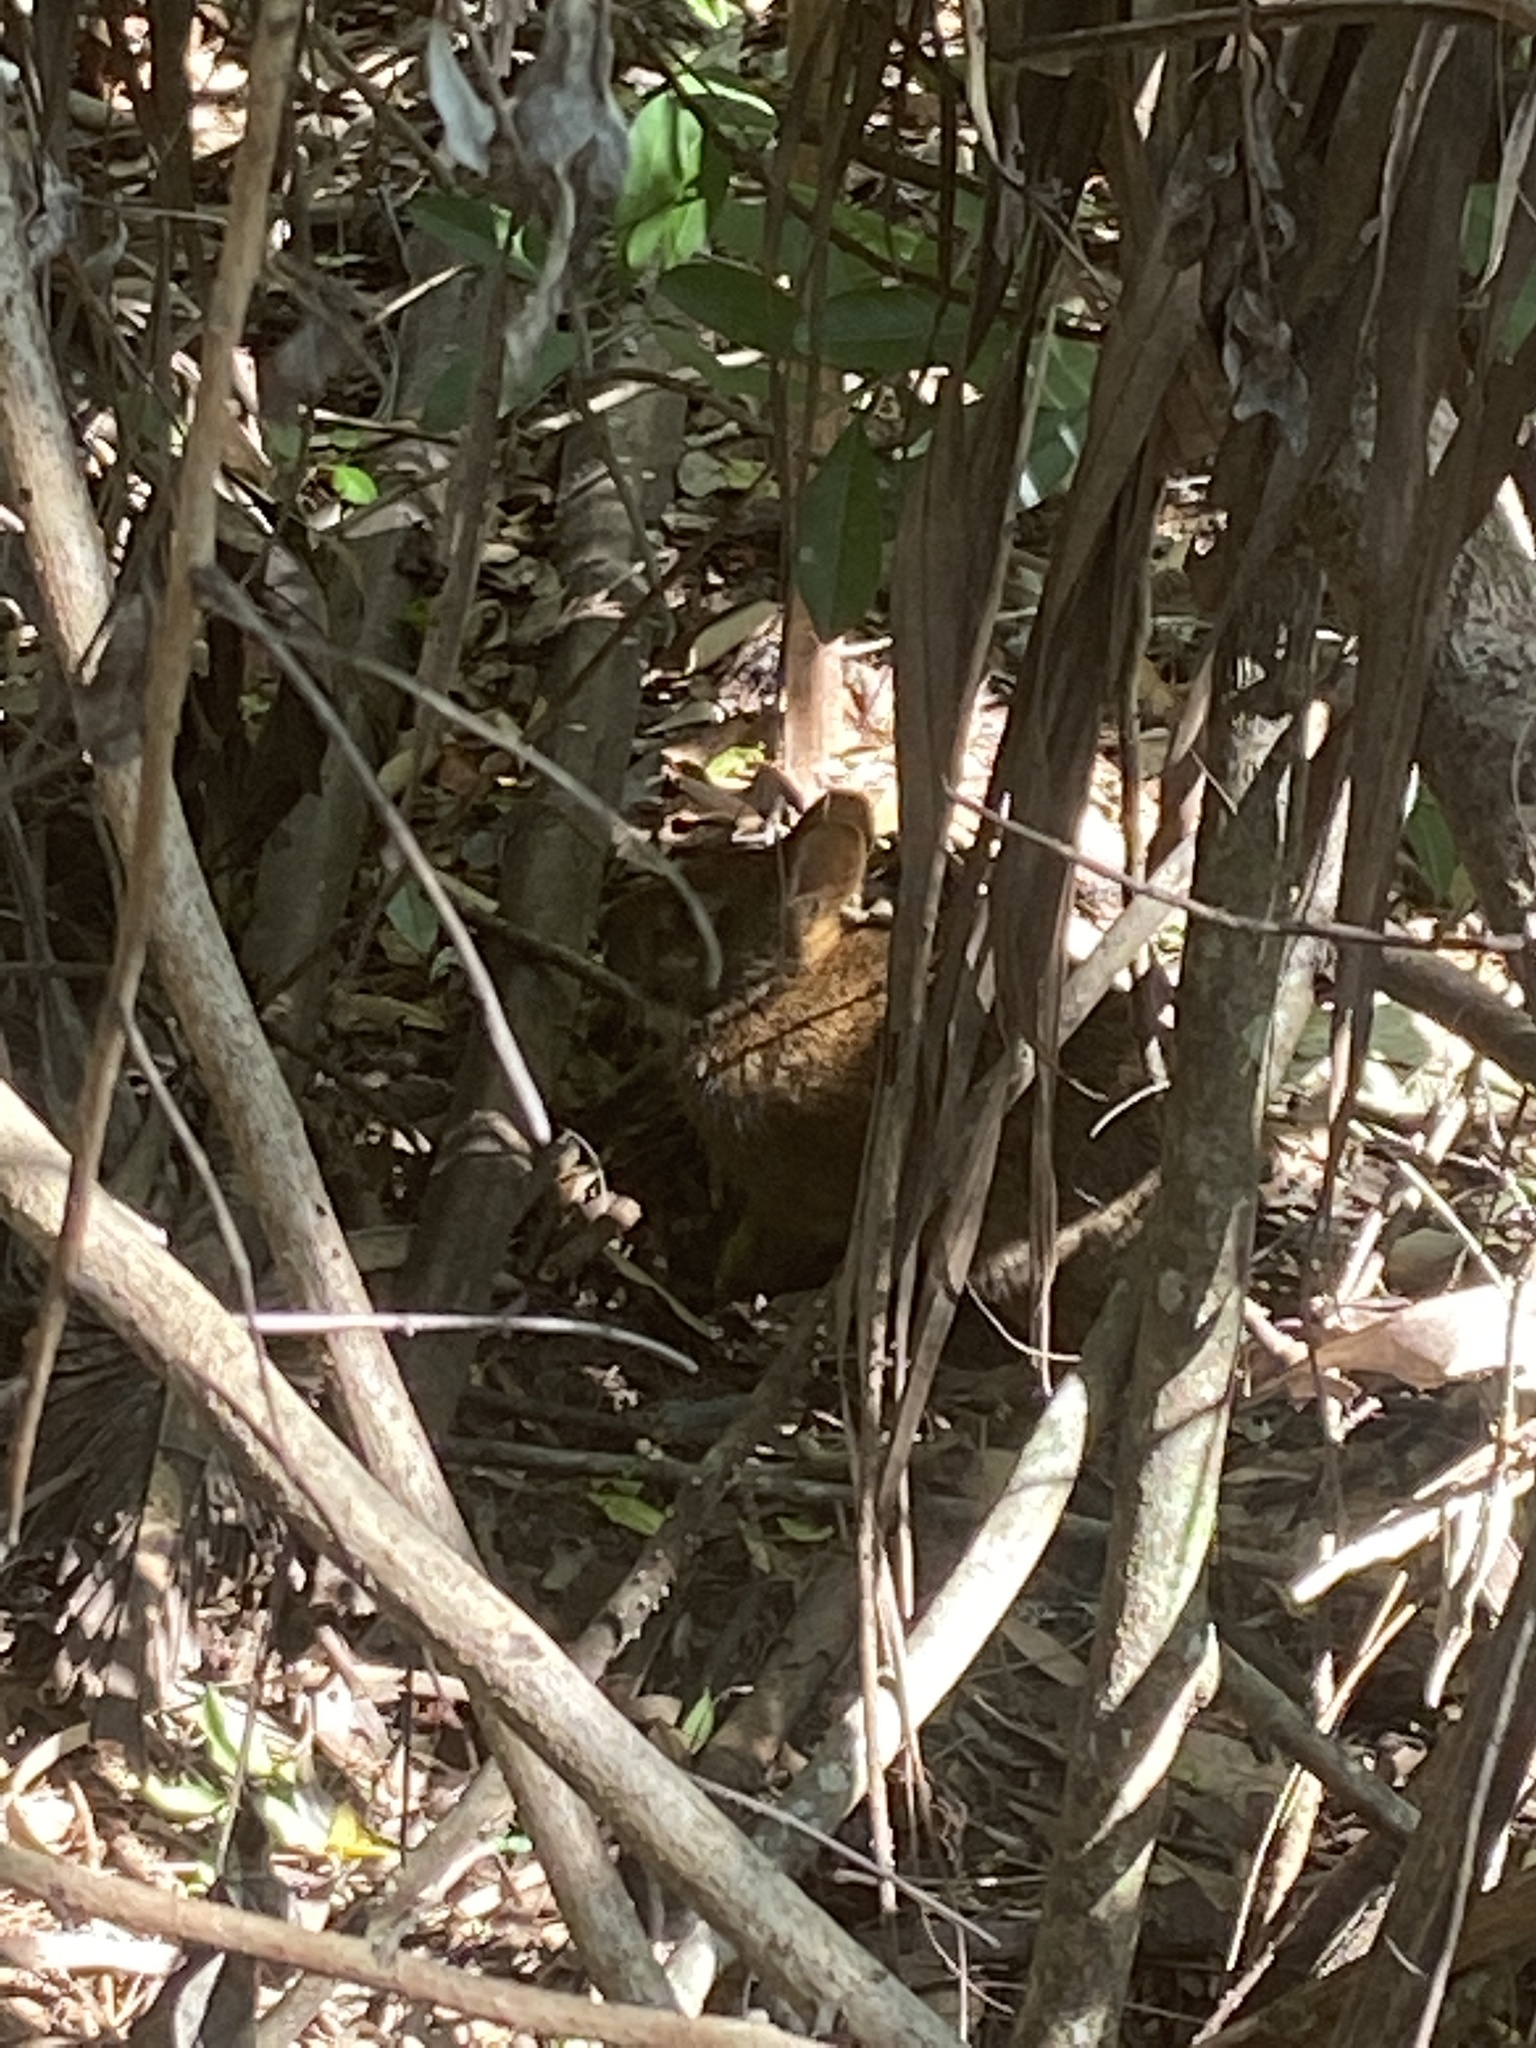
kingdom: Animalia
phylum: Chordata
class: Mammalia
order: Lagomorpha
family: Leporidae
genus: Sylvilagus
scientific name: Sylvilagus palustris
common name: Marsh rabbit
